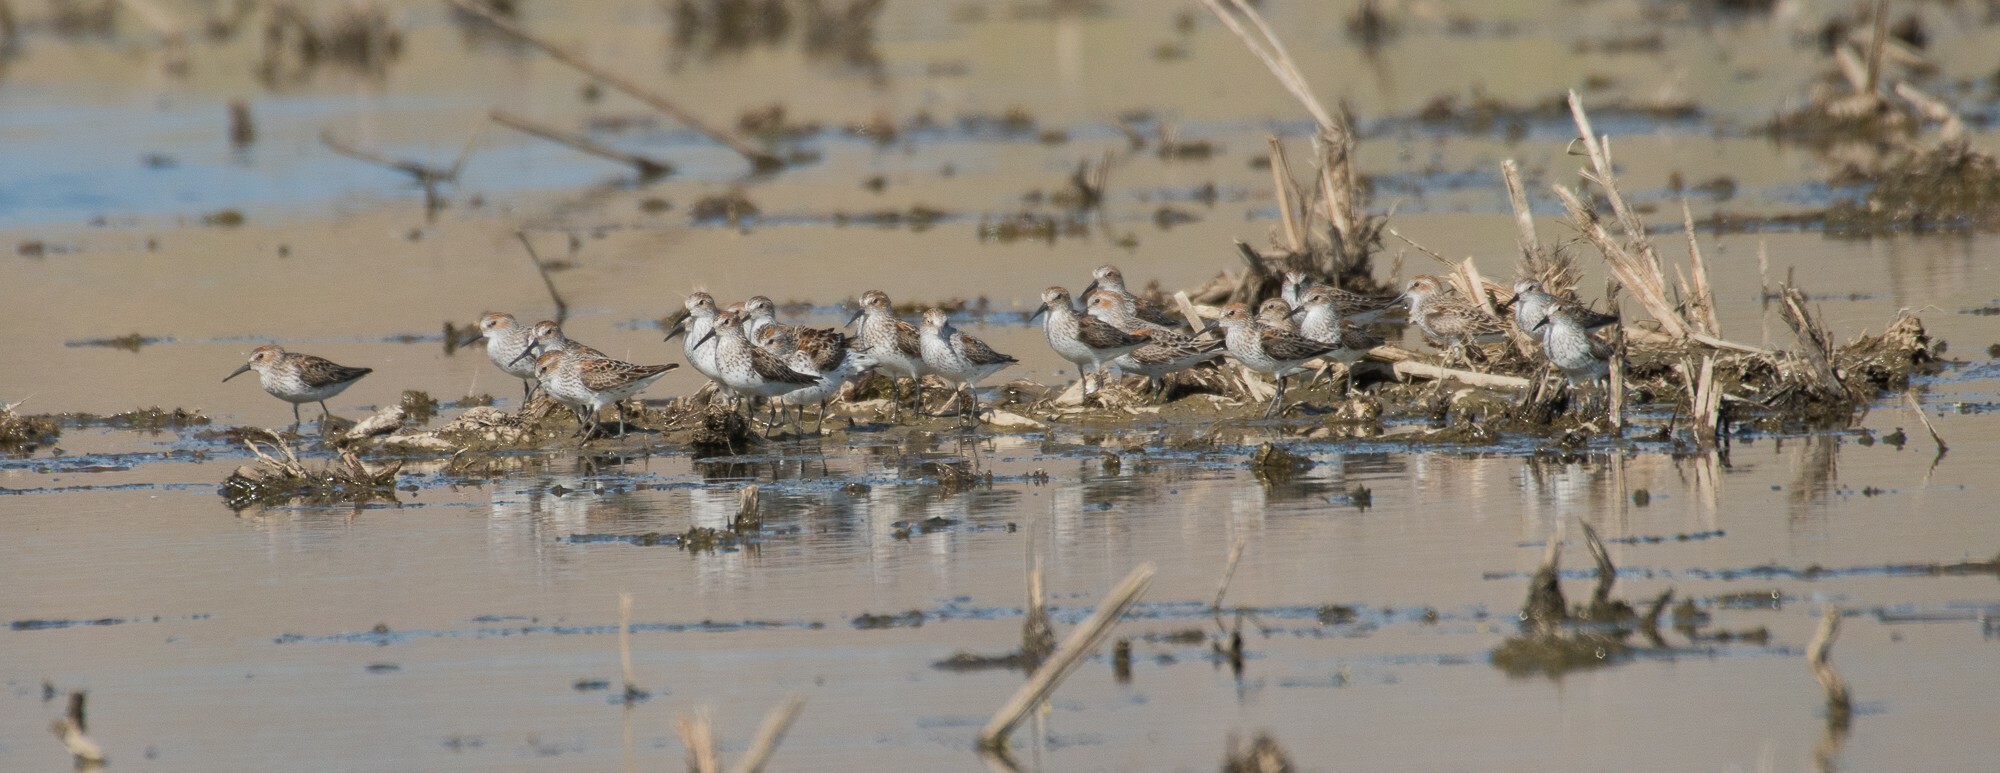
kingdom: Animalia
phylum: Chordata
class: Aves
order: Charadriiformes
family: Scolopacidae
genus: Calidris
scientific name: Calidris mauri
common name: Western sandpiper
